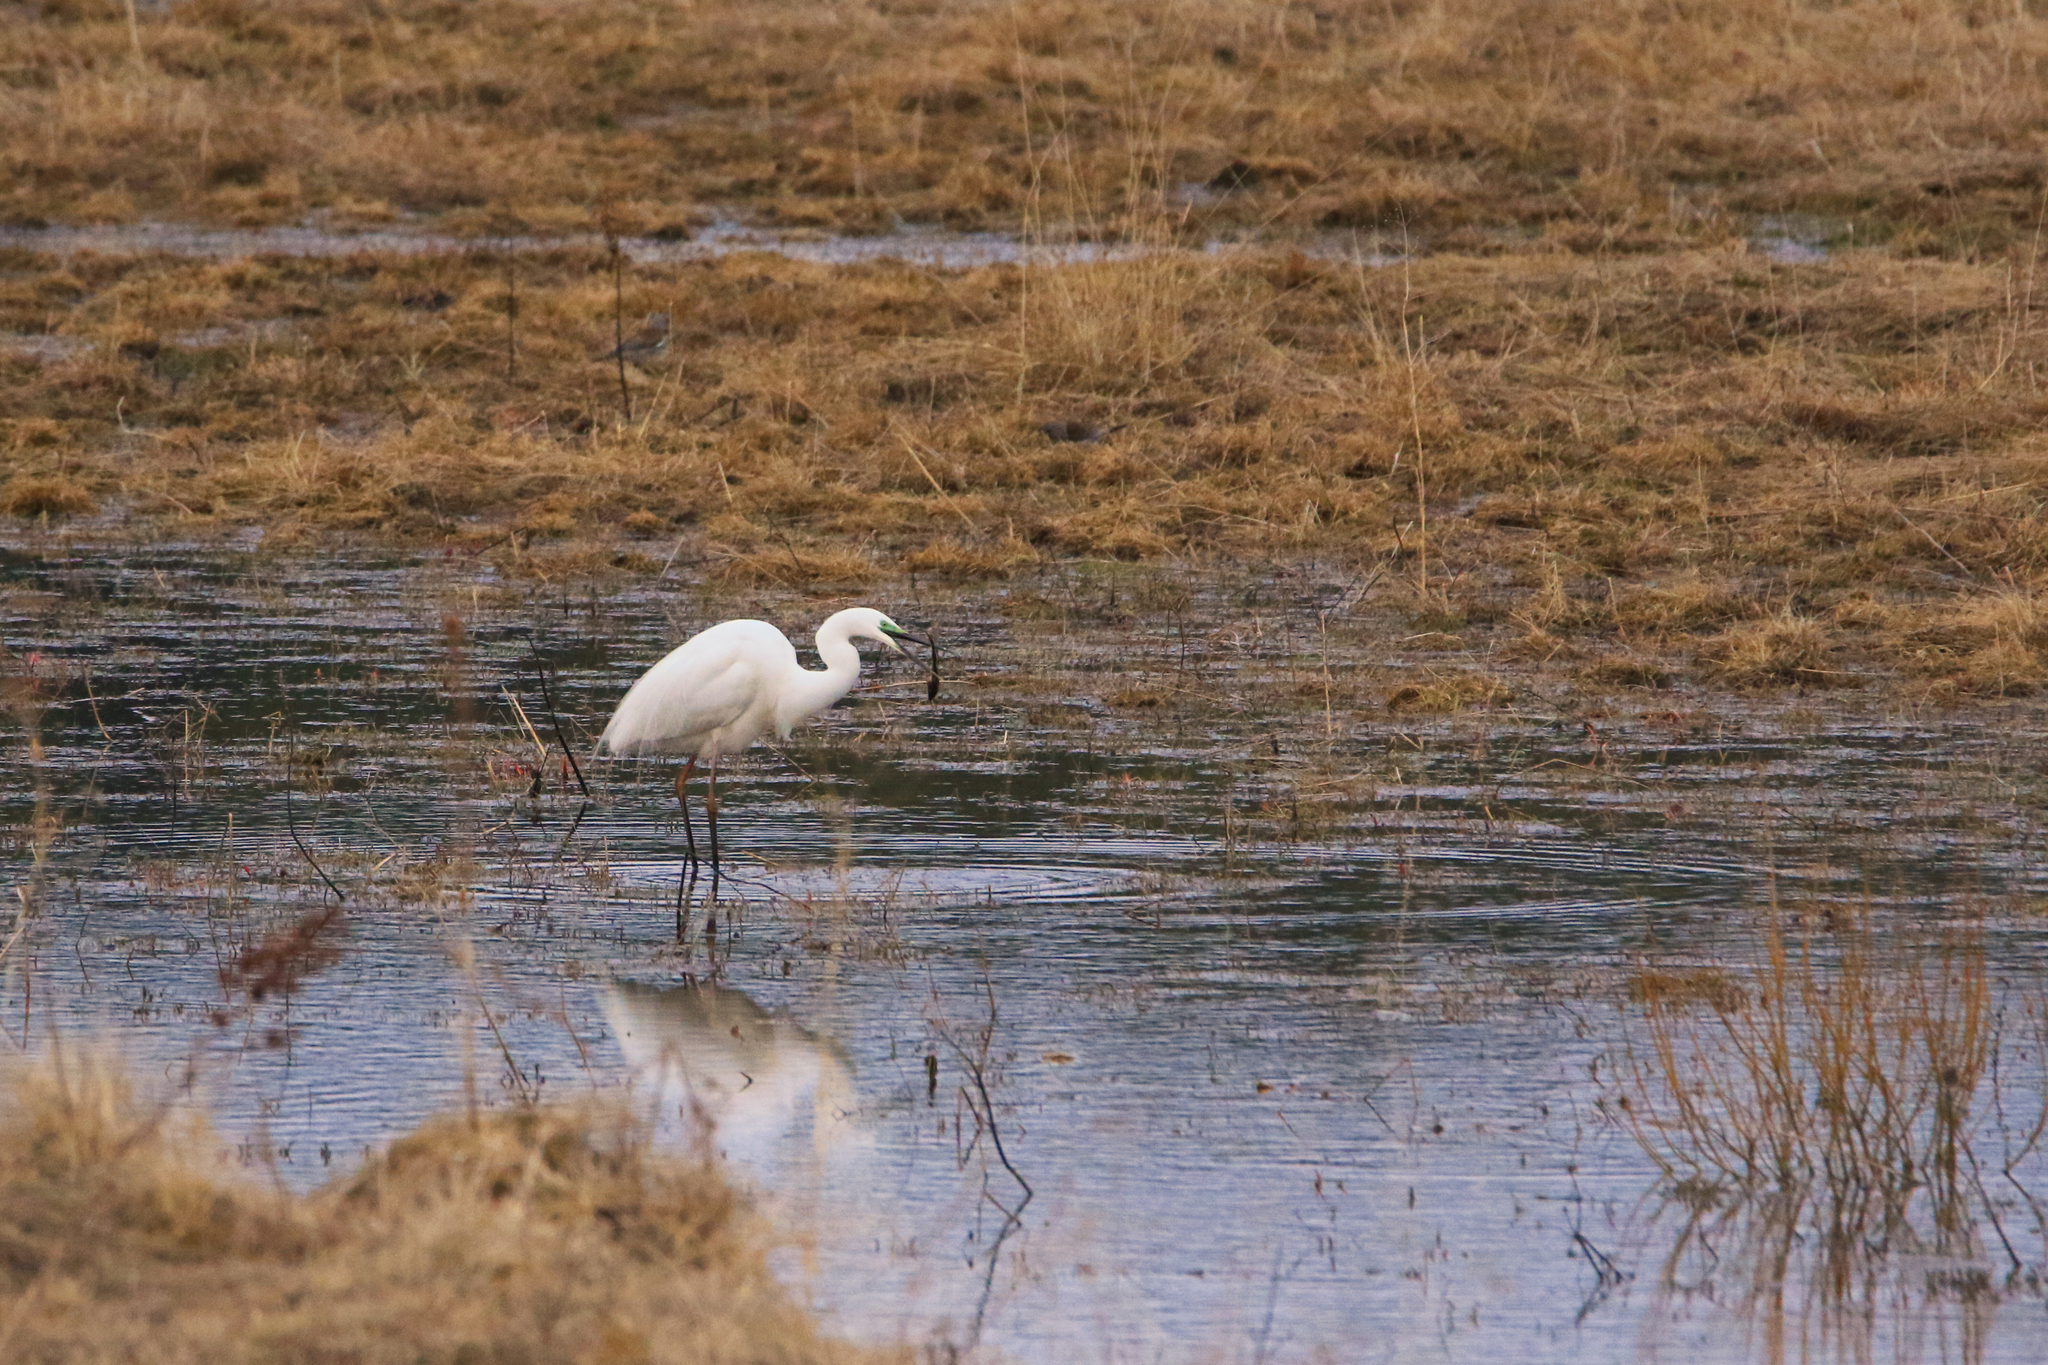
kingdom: Animalia
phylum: Chordata
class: Aves
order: Pelecaniformes
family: Ardeidae
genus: Ardea
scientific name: Ardea alba
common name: Great egret
